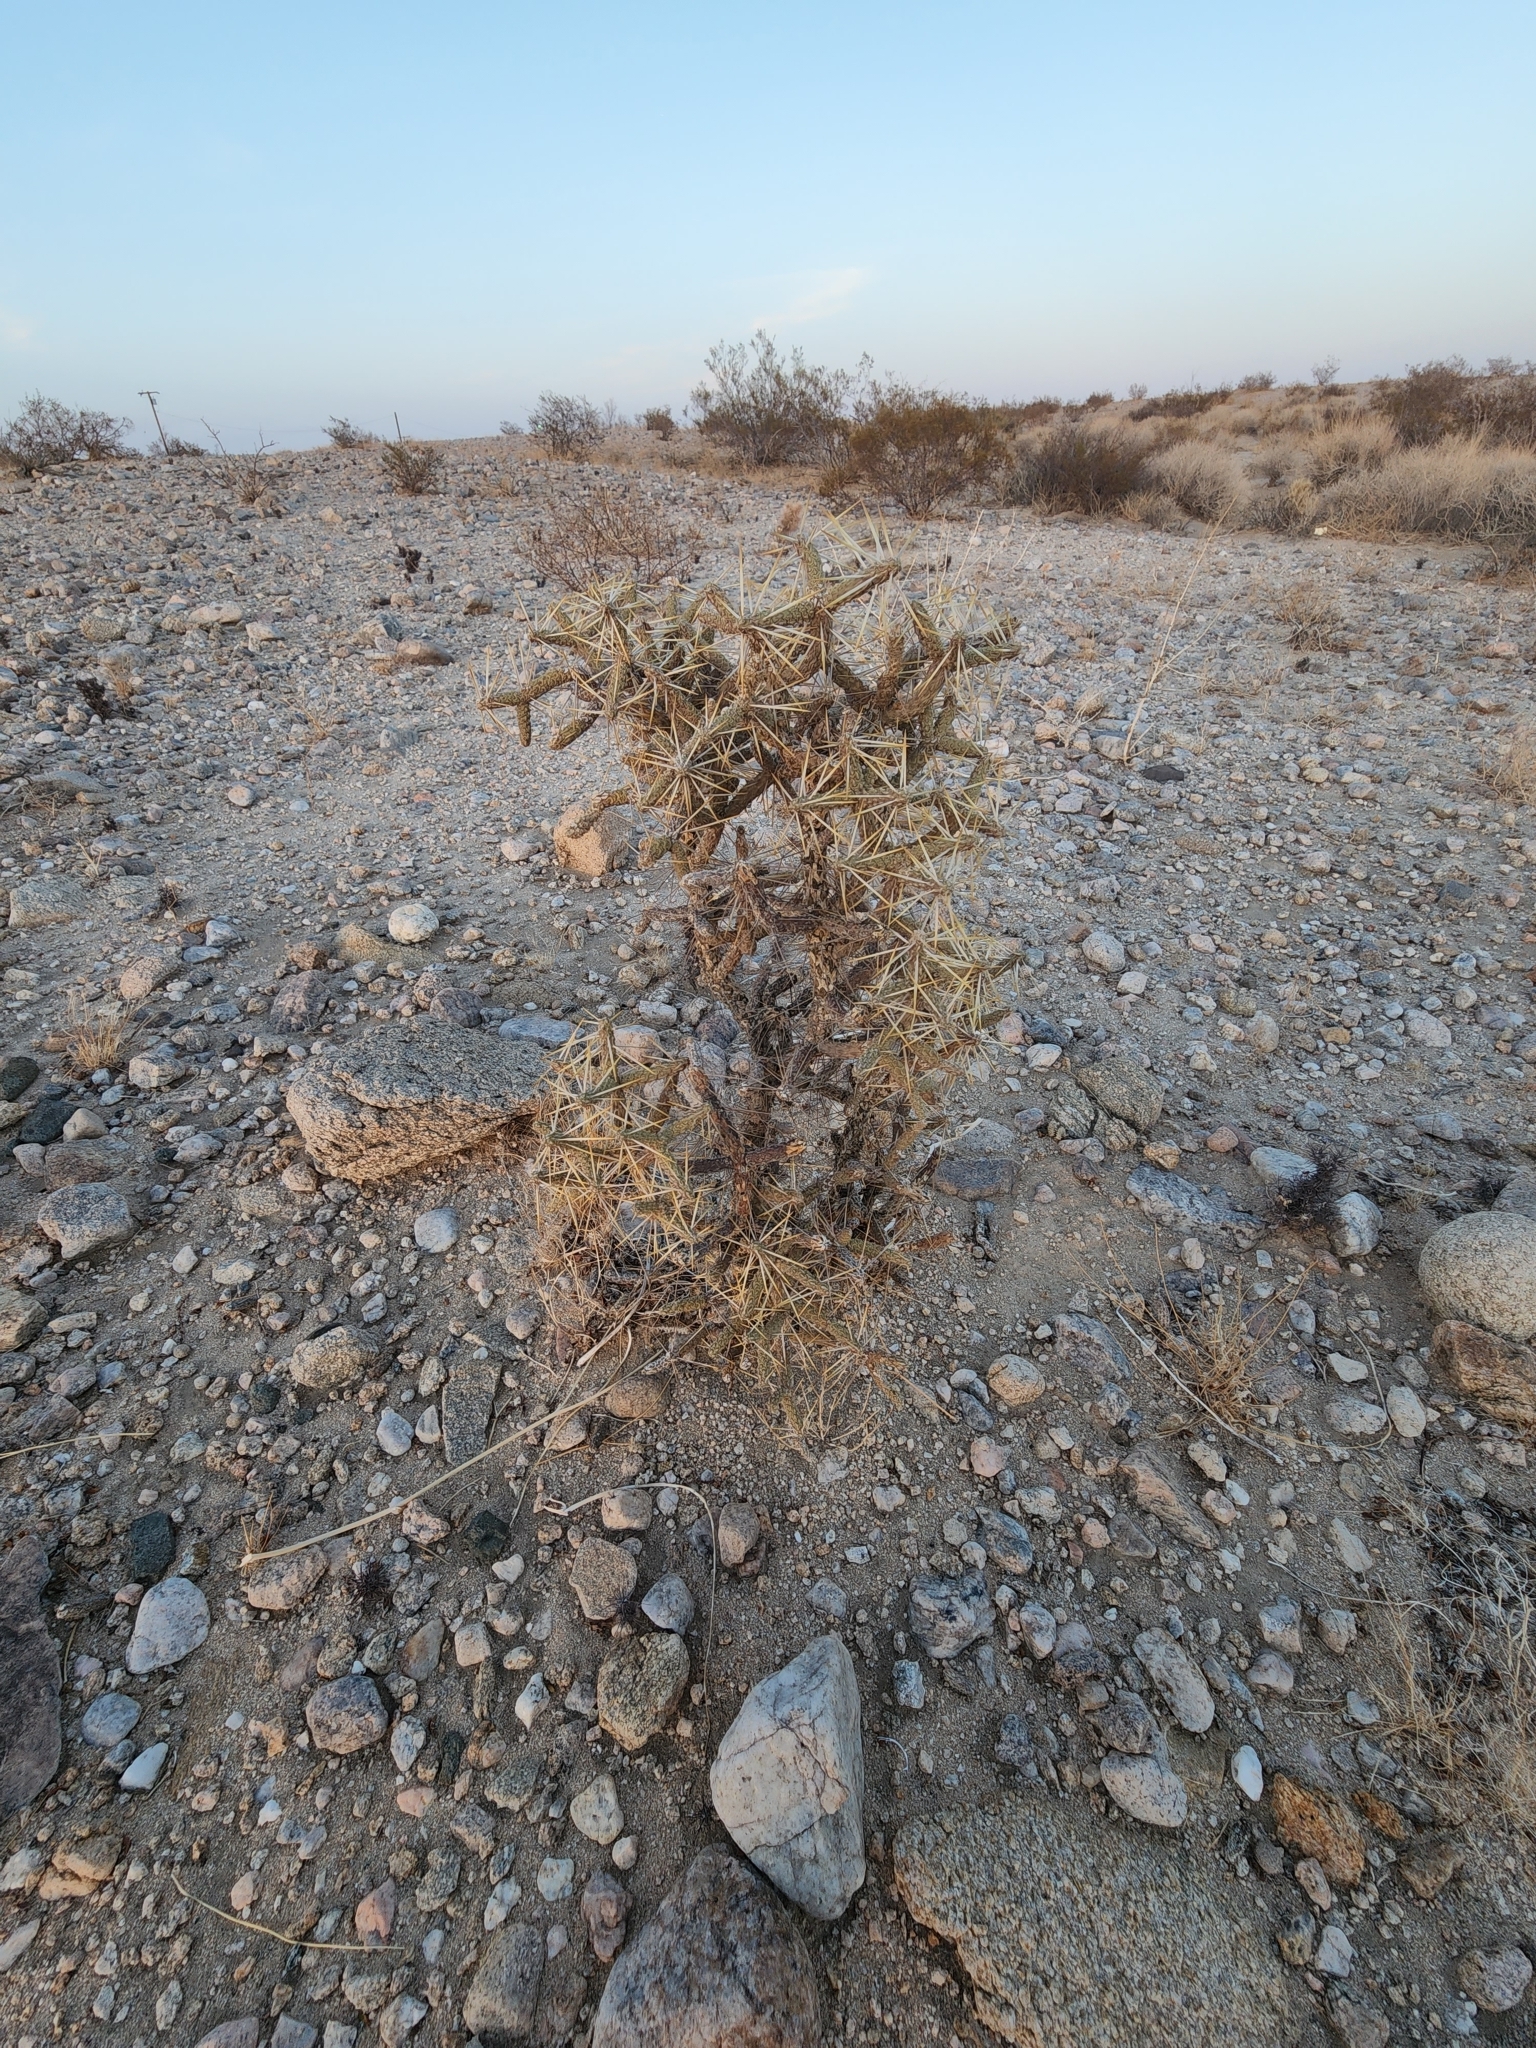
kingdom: Plantae
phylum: Tracheophyta
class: Magnoliopsida
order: Caryophyllales
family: Cactaceae
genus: Cylindropuntia
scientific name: Cylindropuntia ramosissima
